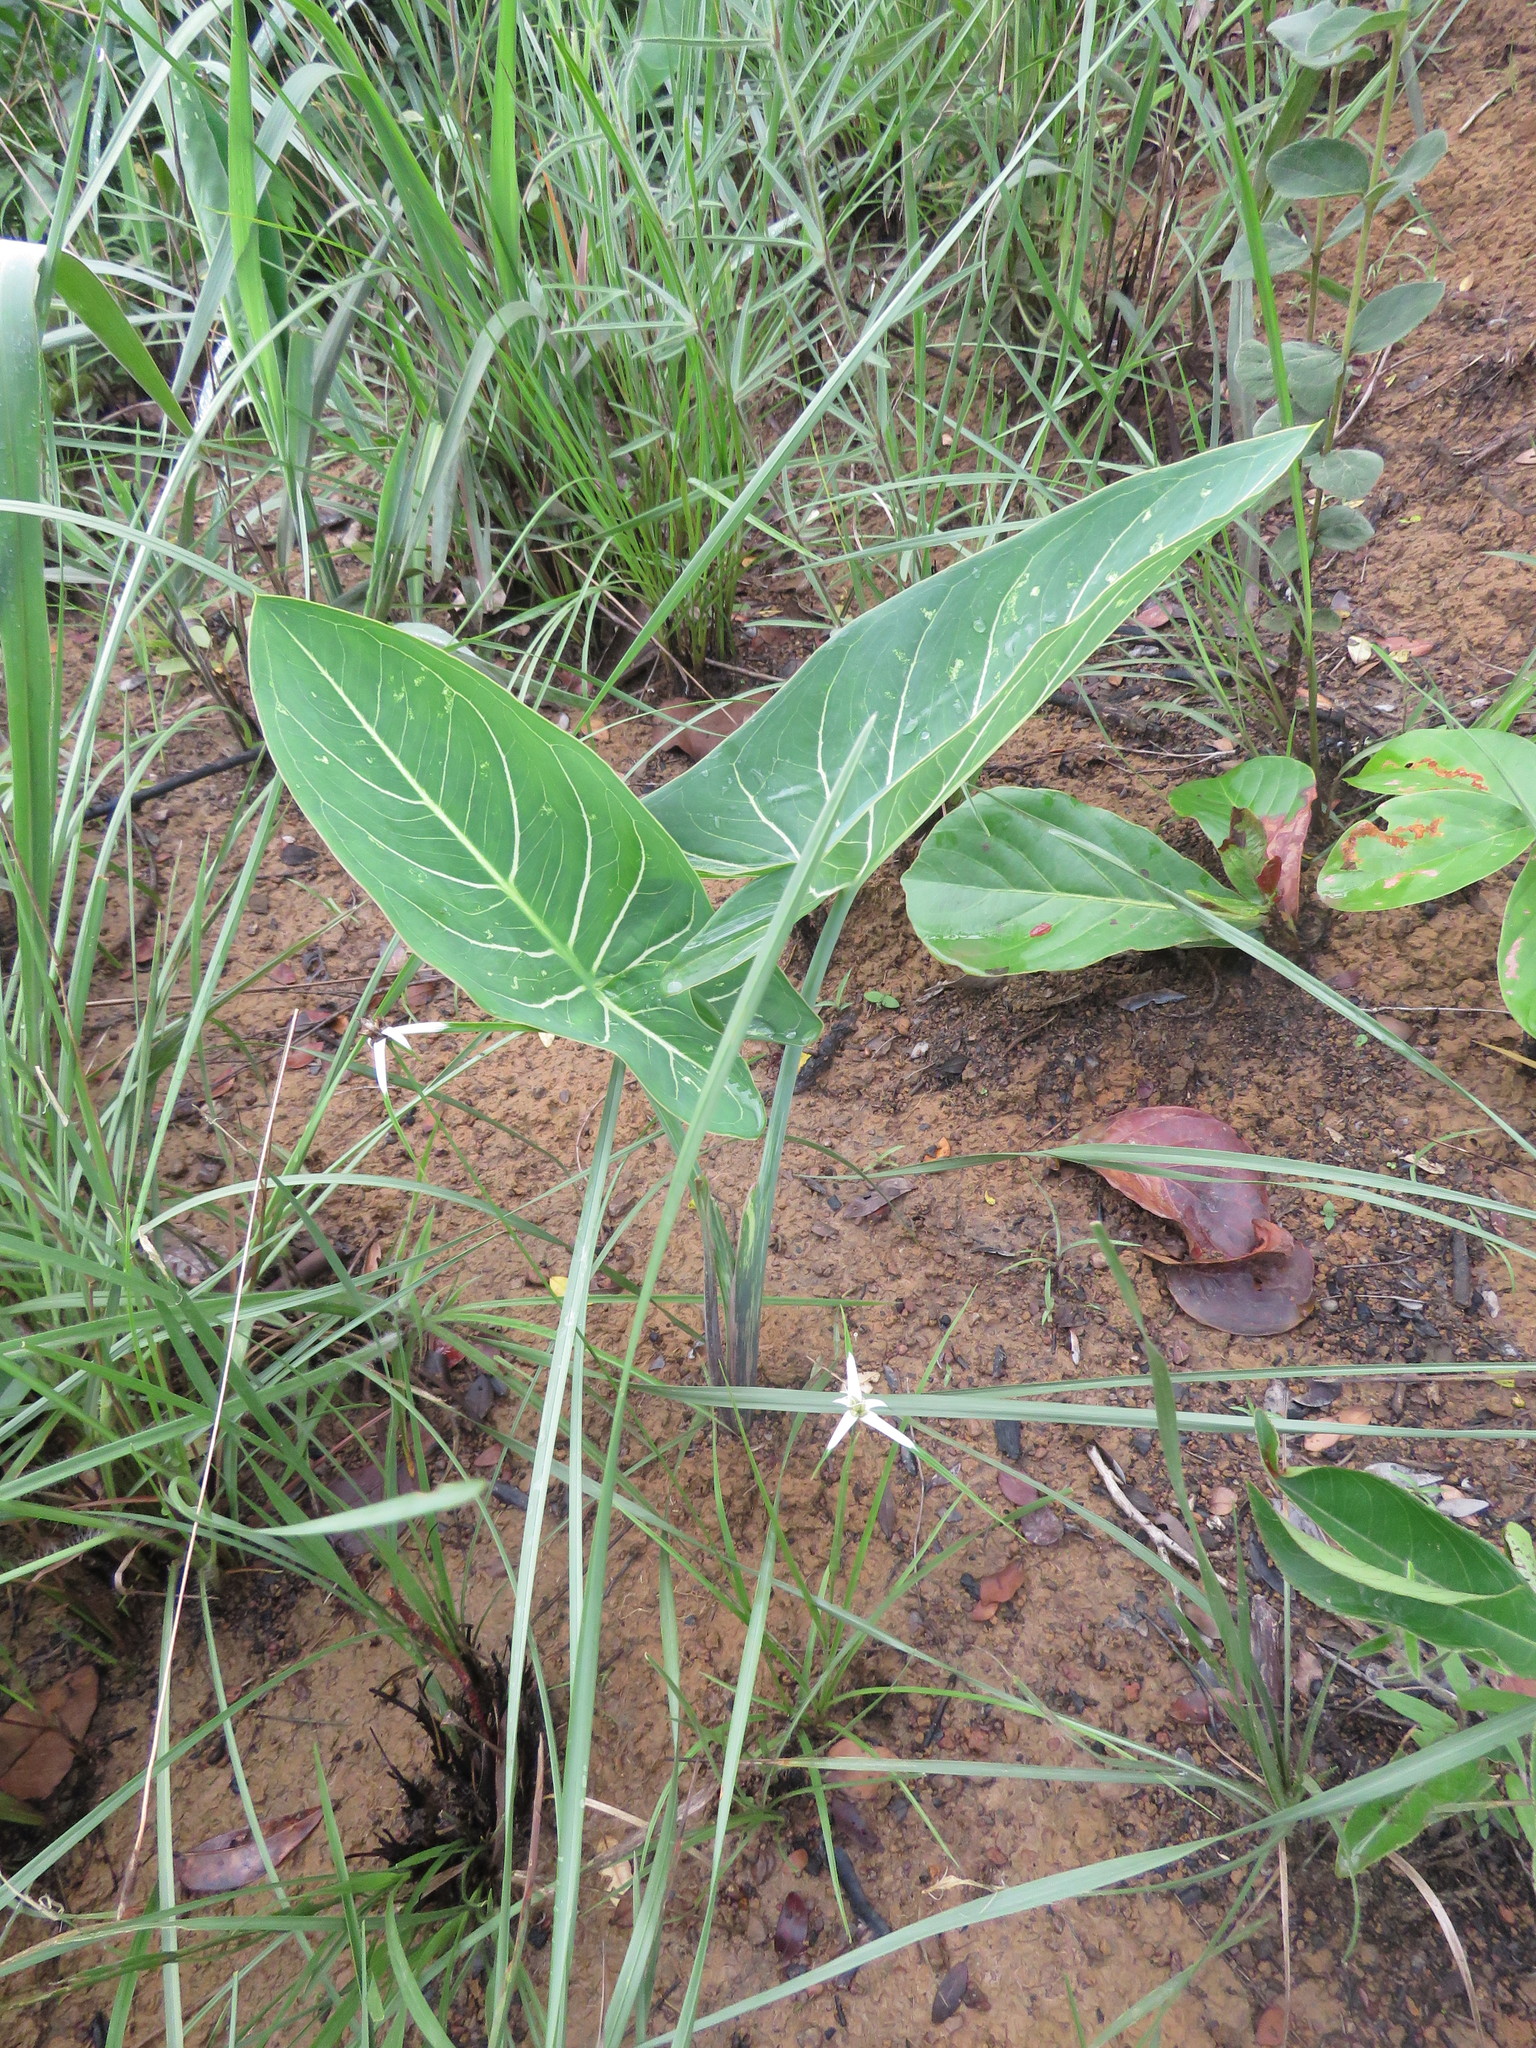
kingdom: Plantae
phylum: Tracheophyta
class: Liliopsida
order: Alismatales
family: Araceae
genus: Synandrospadix
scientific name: Synandrospadix vermitoxicus
